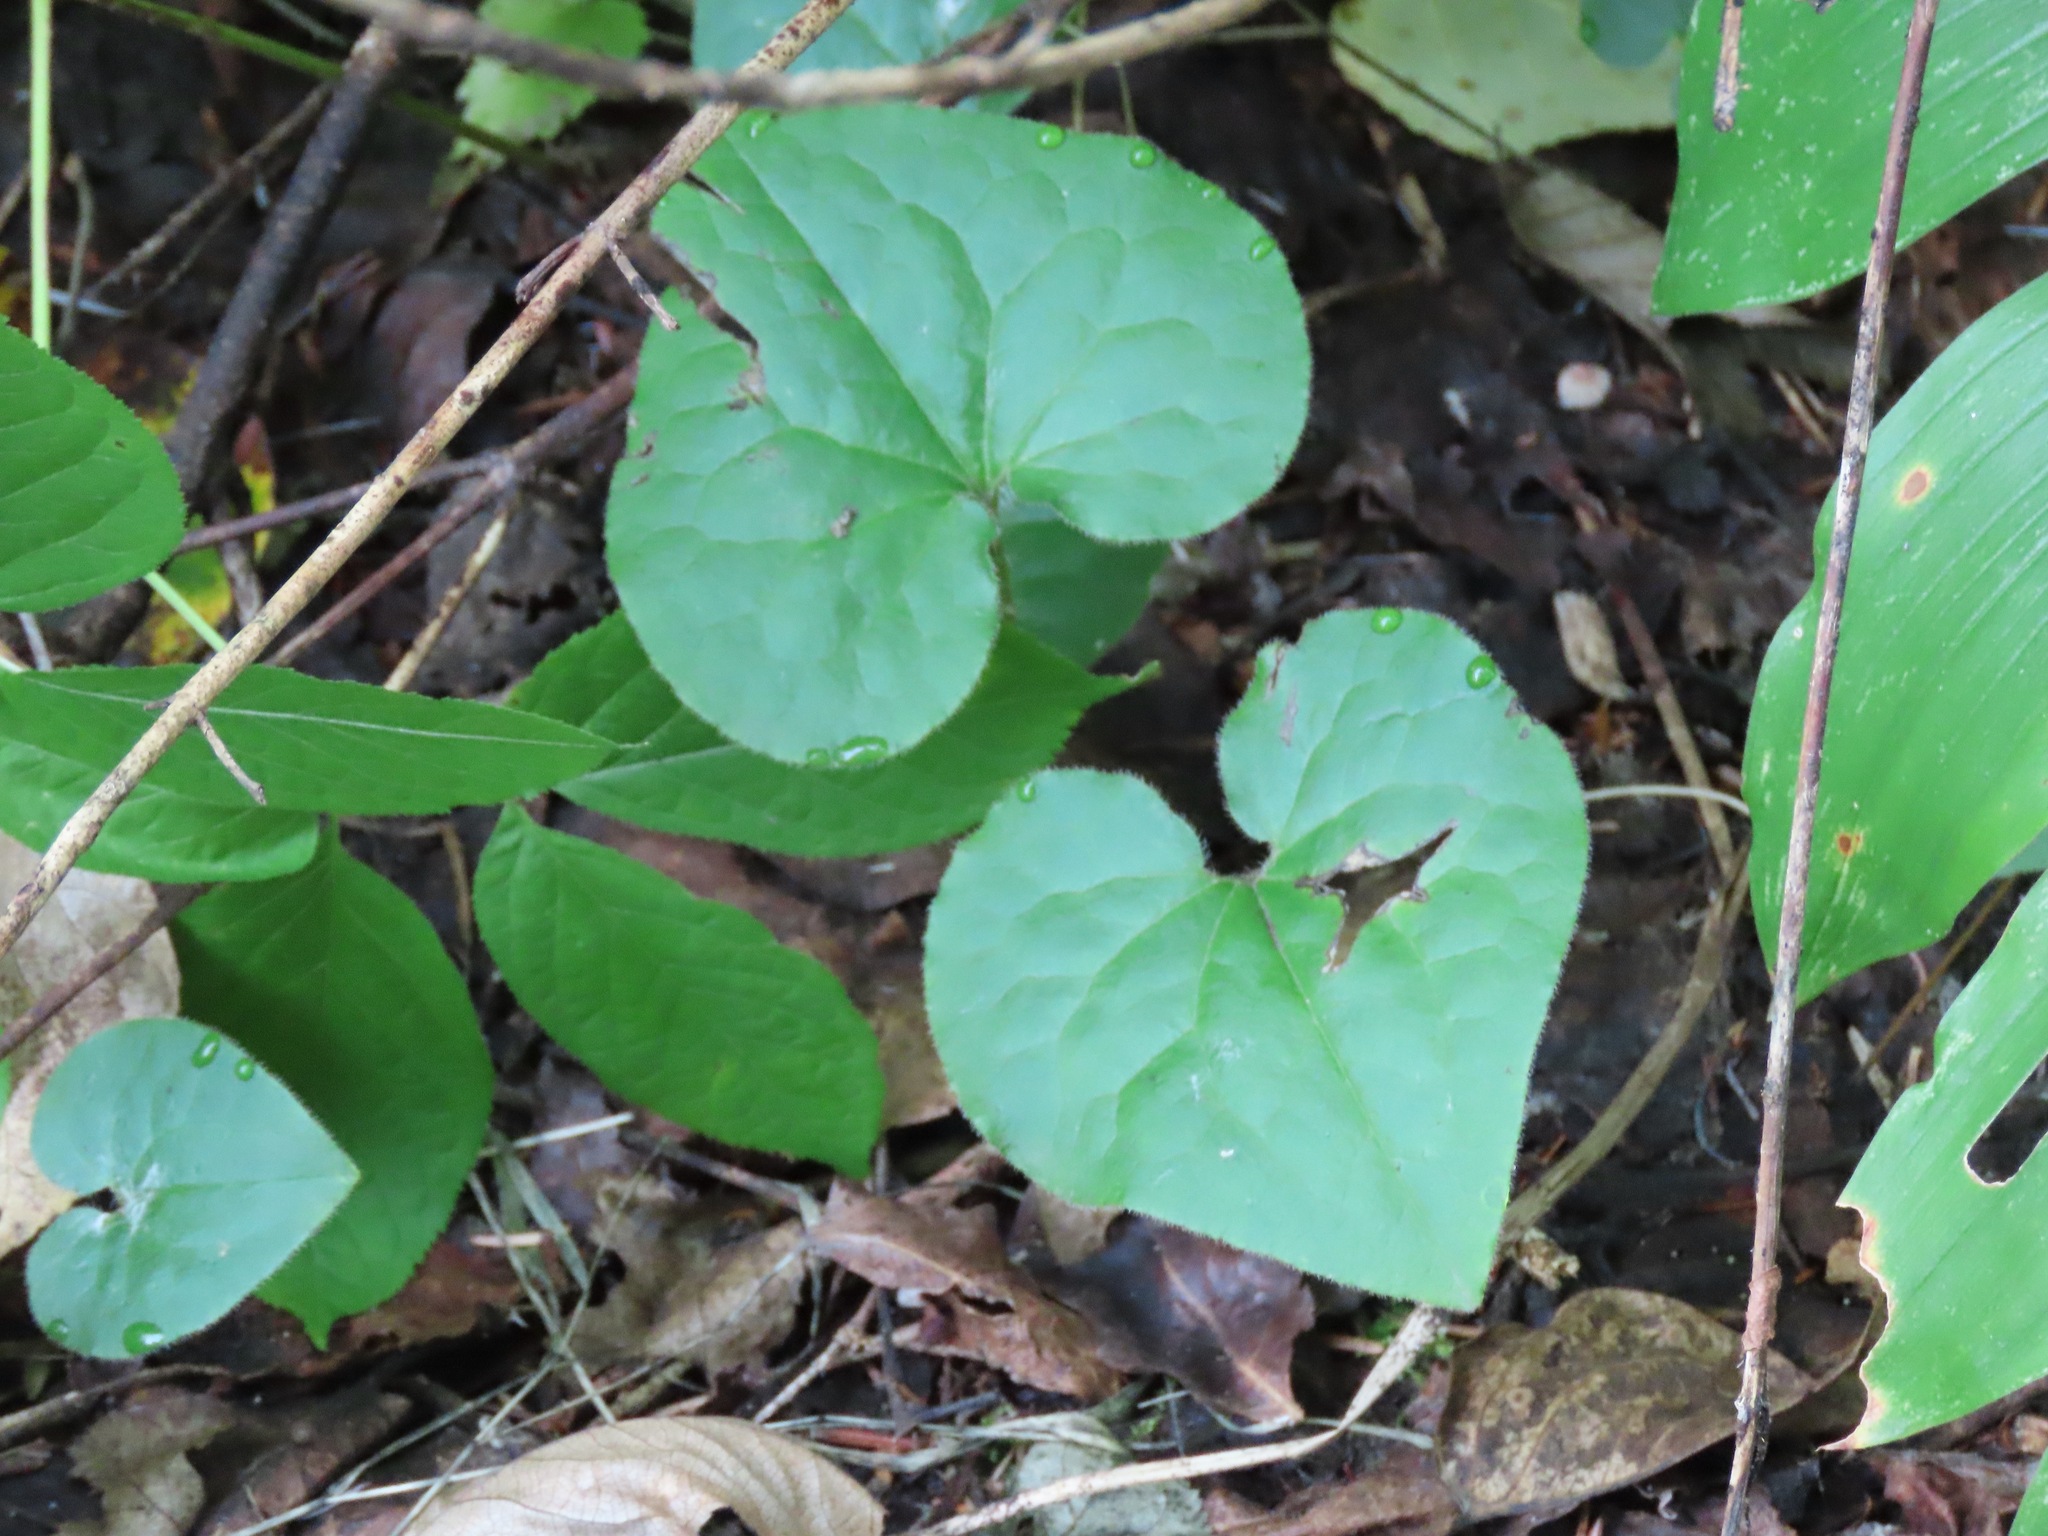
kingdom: Plantae
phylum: Tracheophyta
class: Magnoliopsida
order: Piperales
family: Aristolochiaceae
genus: Asarum
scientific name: Asarum caudatum
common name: Wild ginger
